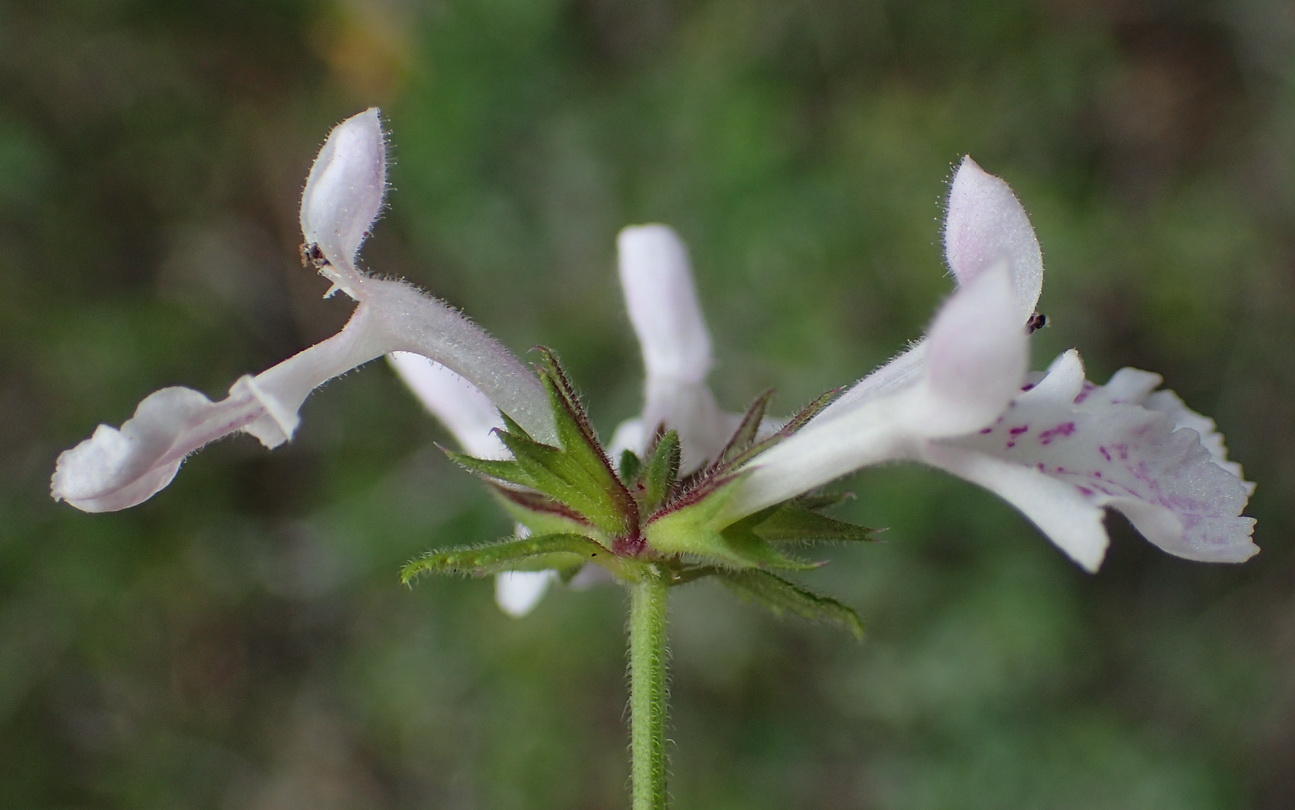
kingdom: Plantae
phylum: Tracheophyta
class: Magnoliopsida
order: Lamiales
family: Lamiaceae
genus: Stachys
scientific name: Stachys aethiopica
